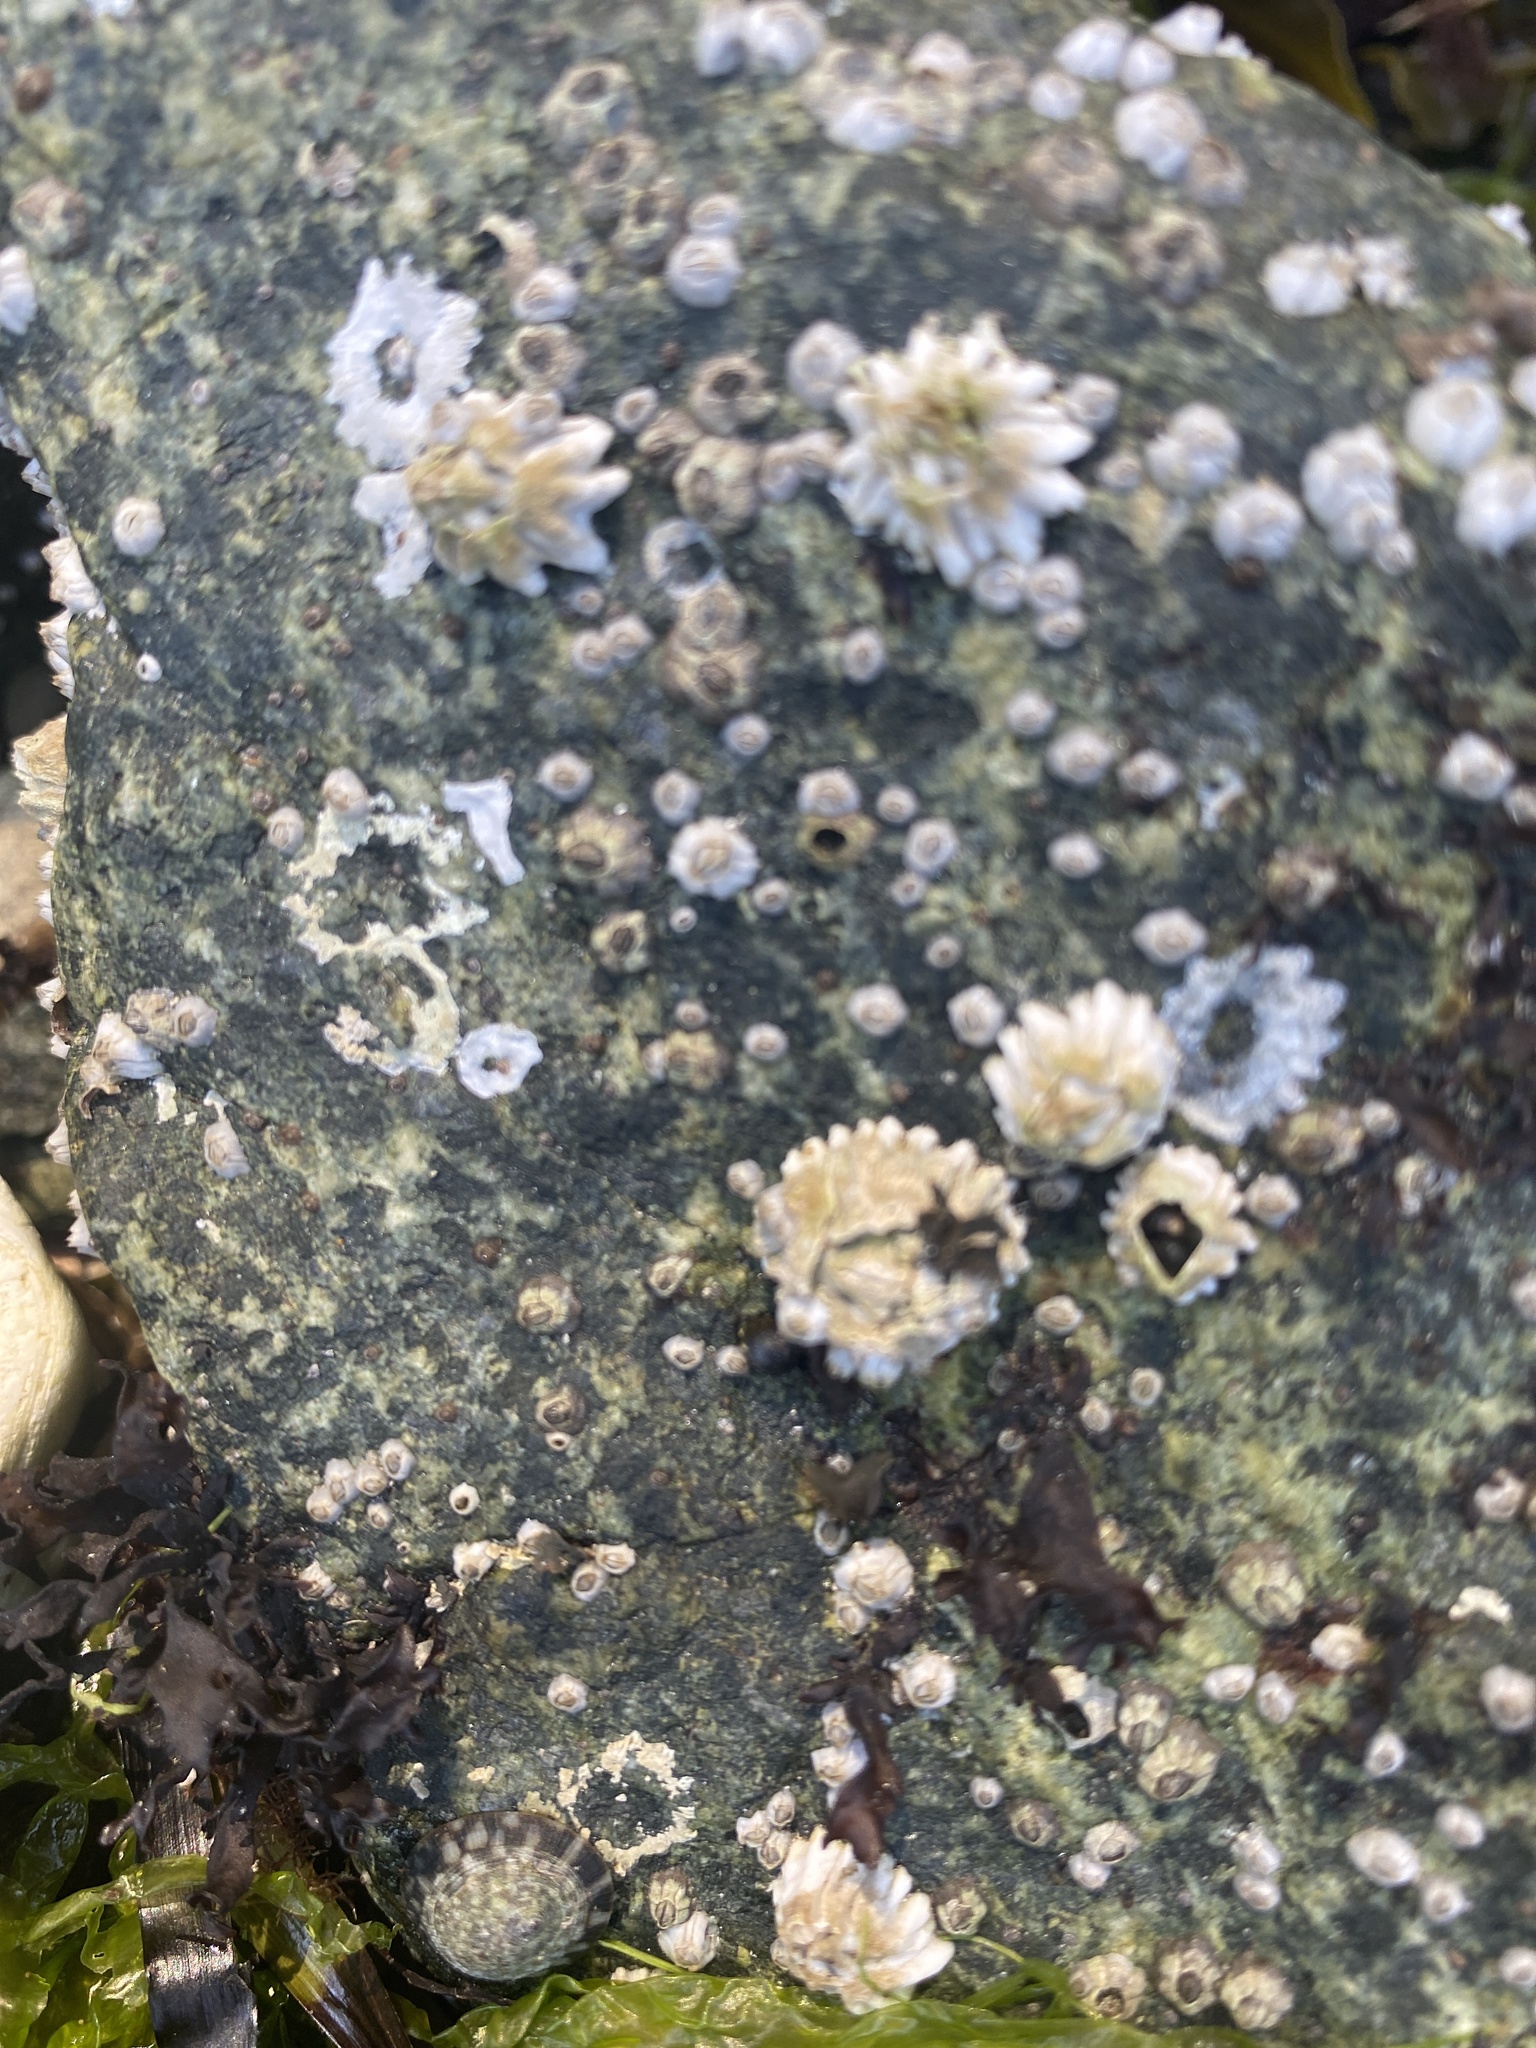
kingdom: Animalia
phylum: Arthropoda
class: Maxillopoda
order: Sessilia
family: Balanidae
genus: Balanus
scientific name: Balanus glandula
